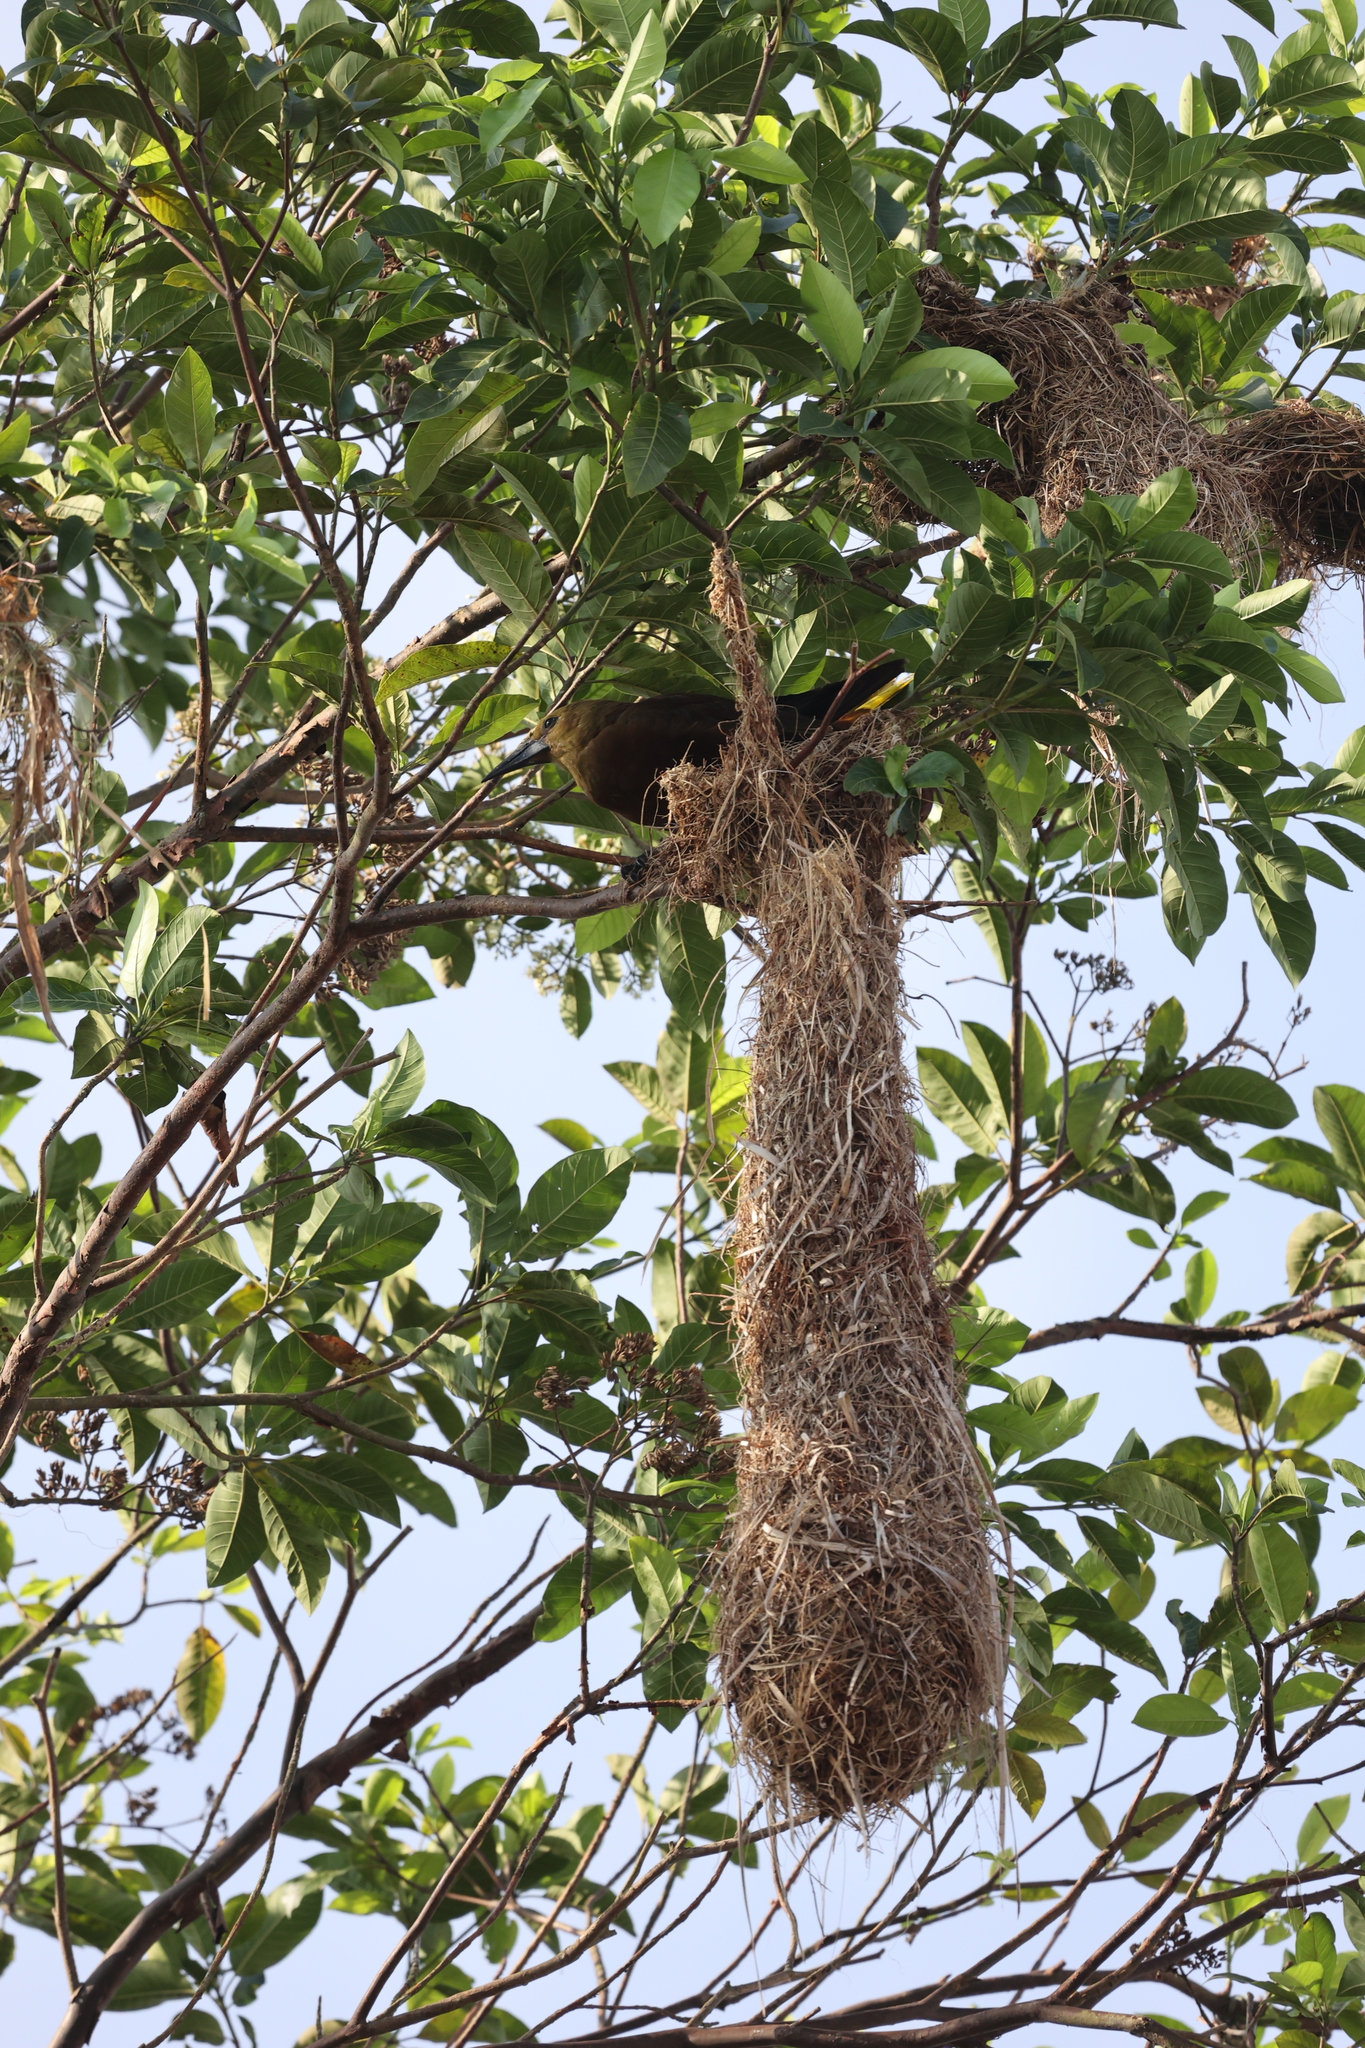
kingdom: Animalia
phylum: Chordata
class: Aves
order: Passeriformes
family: Icteridae
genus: Psarocolius
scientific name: Psarocolius angustifrons
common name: Russet-backed oropendola
